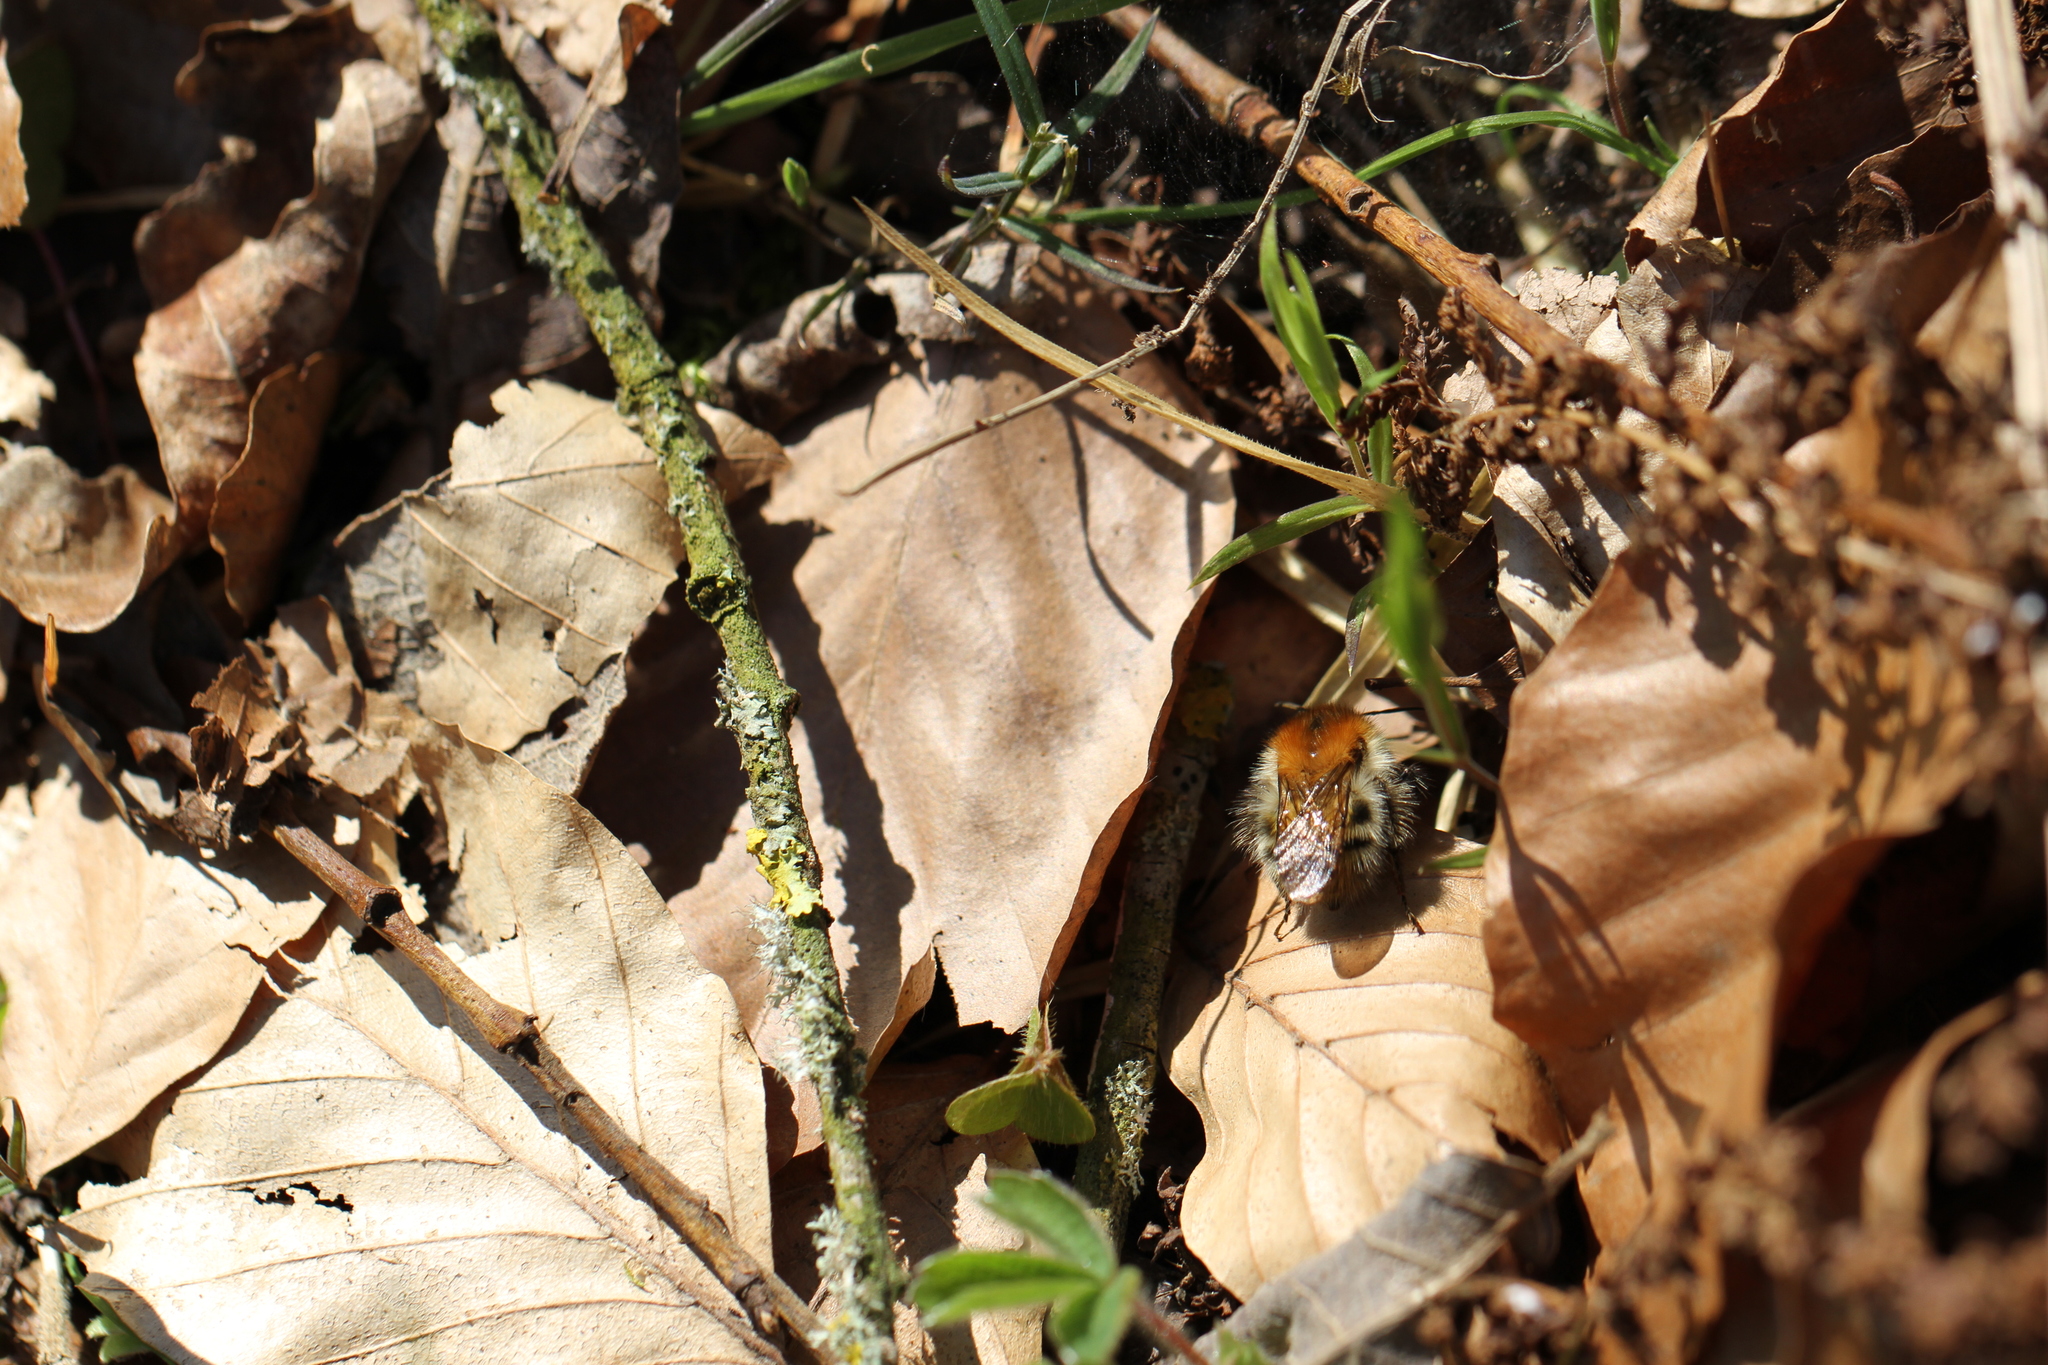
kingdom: Animalia
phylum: Arthropoda
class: Insecta
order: Hymenoptera
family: Apidae
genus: Bombus
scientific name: Bombus pascuorum
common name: Common carder bee
